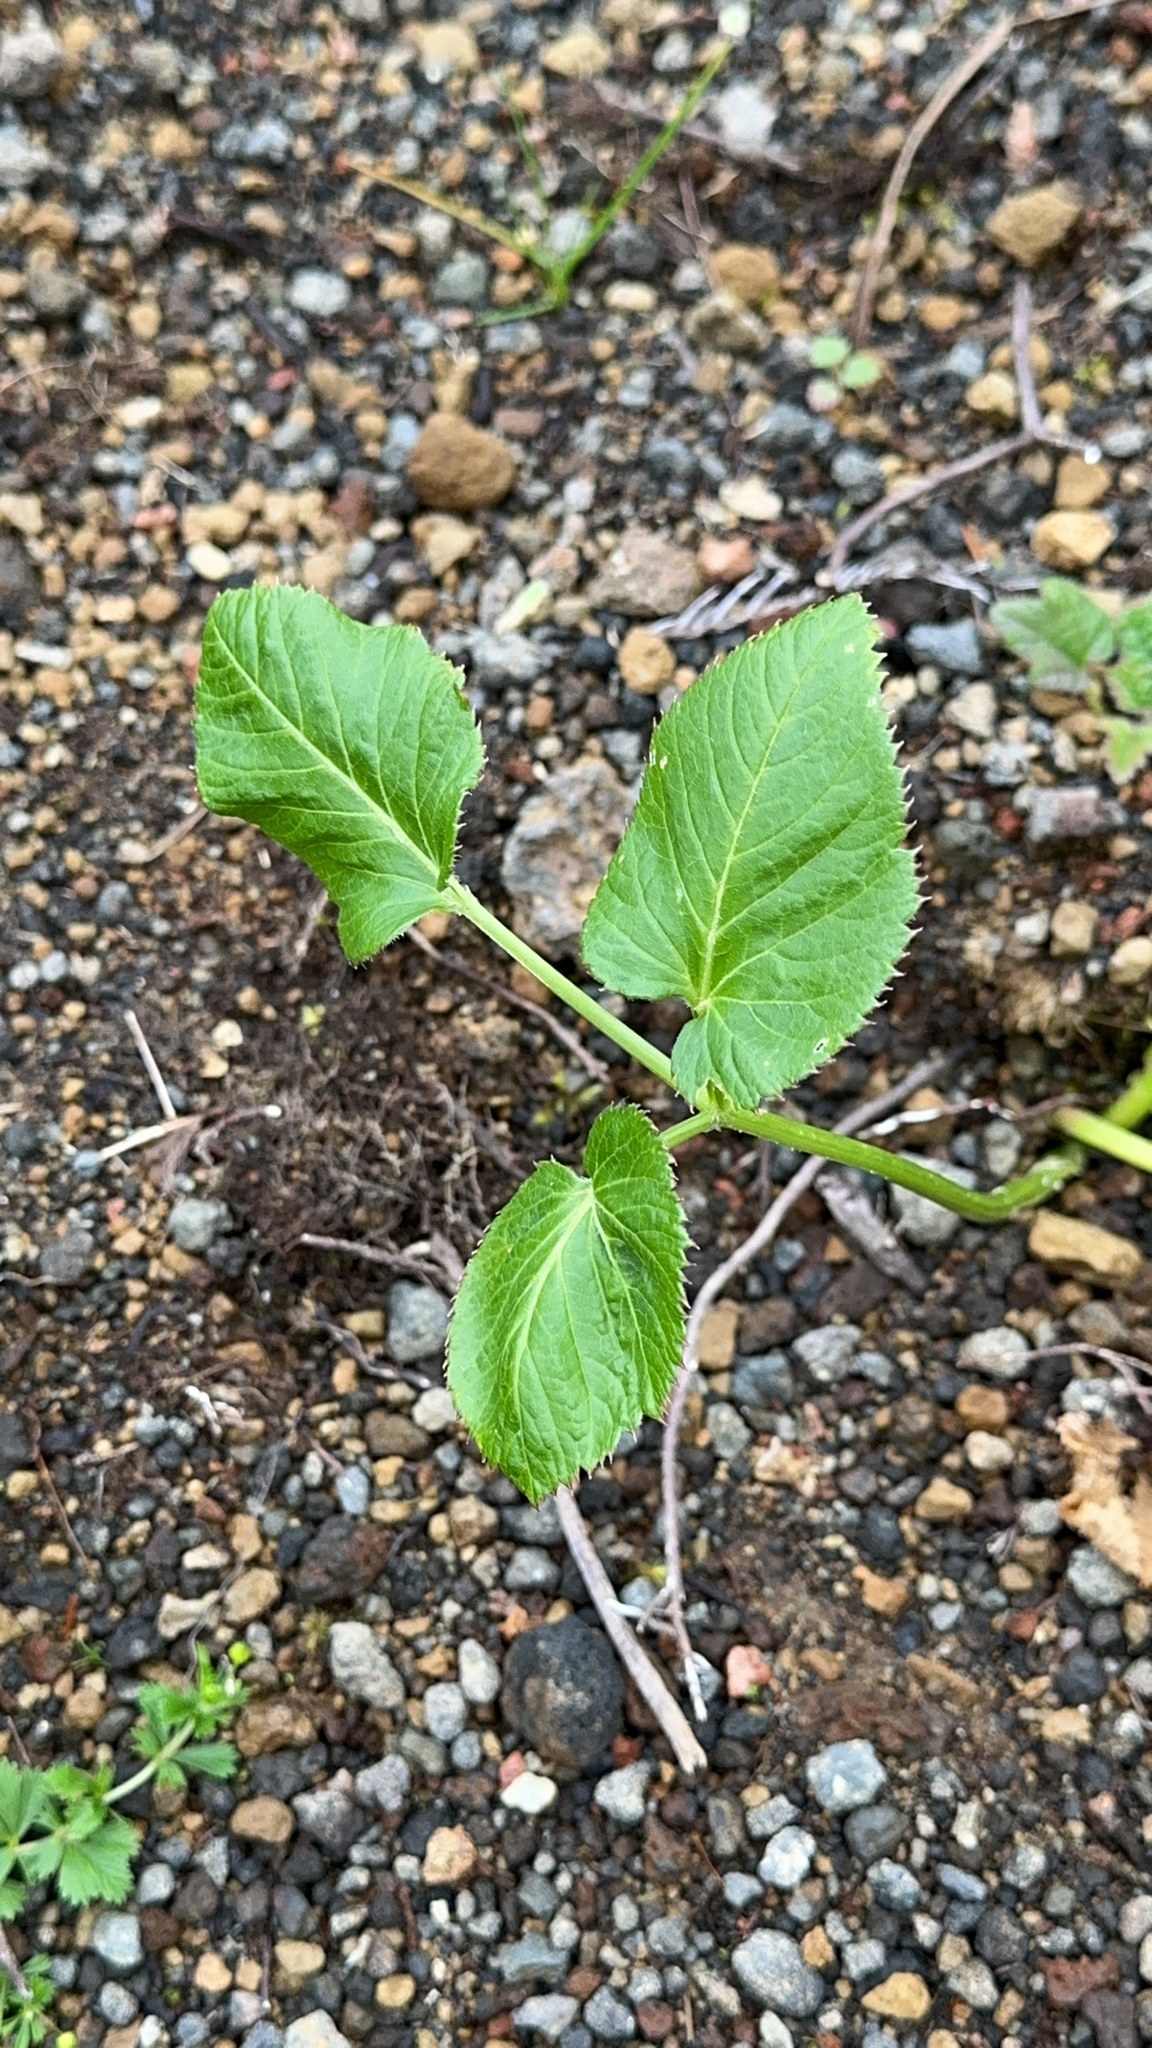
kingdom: Plantae
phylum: Tracheophyta
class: Magnoliopsida
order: Apiales
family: Apiaceae
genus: Angelica
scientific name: Angelica lignescens
